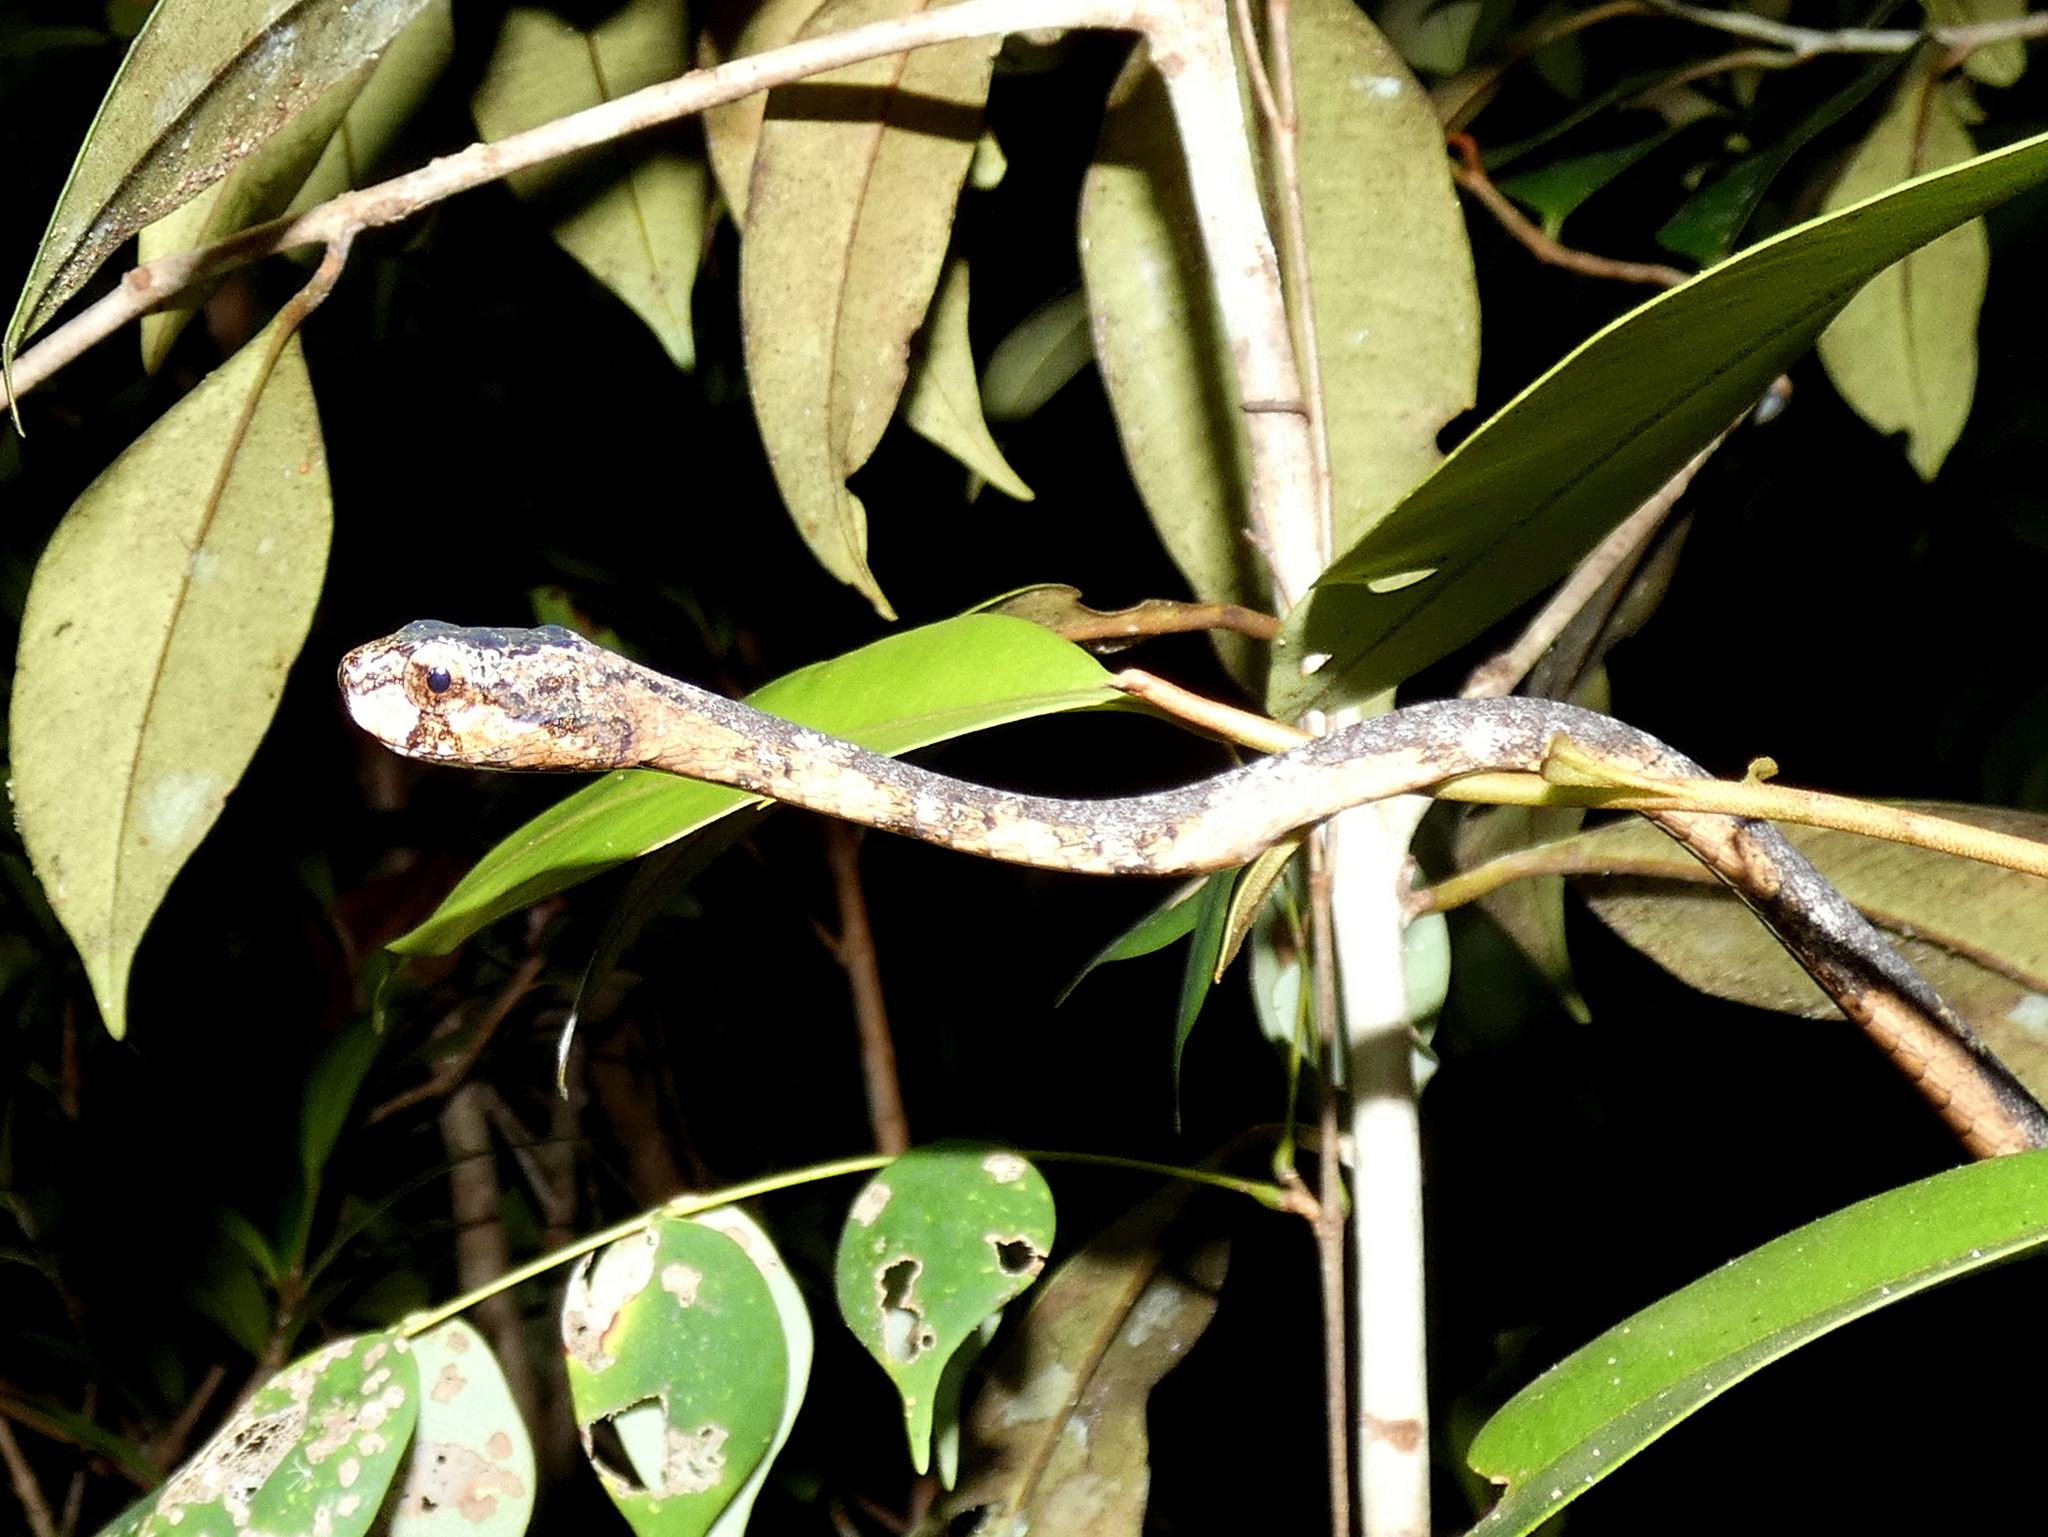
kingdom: Animalia
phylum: Chordata
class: Squamata
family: Pareidae
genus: Aplopeltura
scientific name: Aplopeltura boa
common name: Blunthead slug snake
